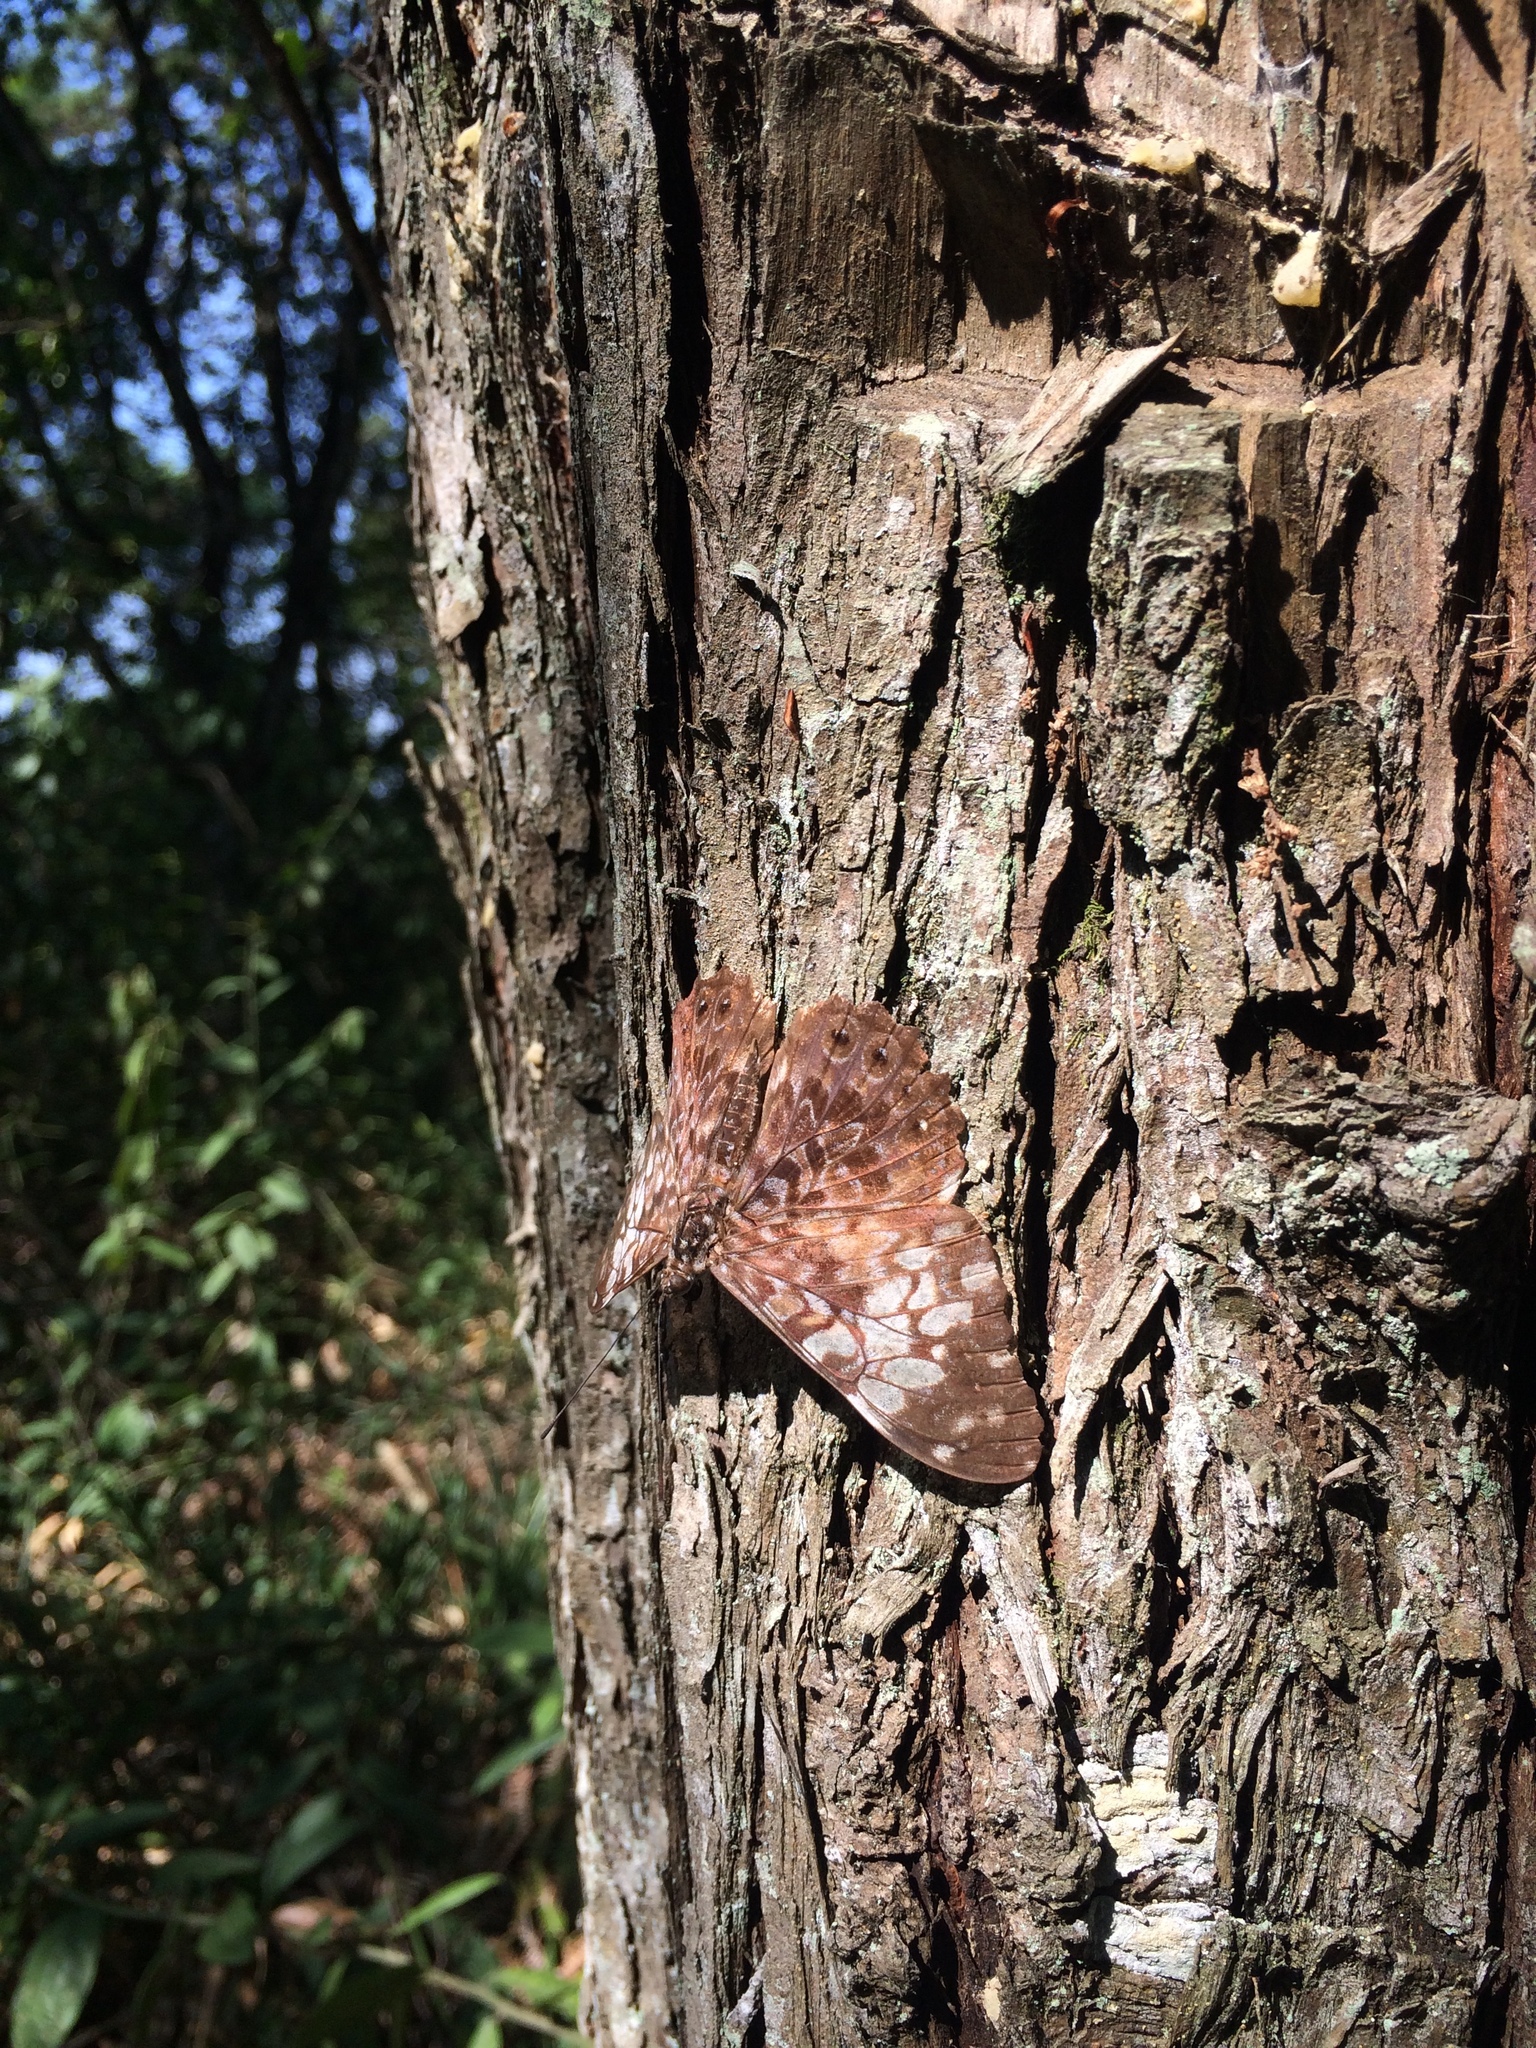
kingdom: Animalia
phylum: Arthropoda
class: Insecta
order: Lepidoptera
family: Nymphalidae
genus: Hamadryas
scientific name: Hamadryas fornax
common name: Orange cracker
